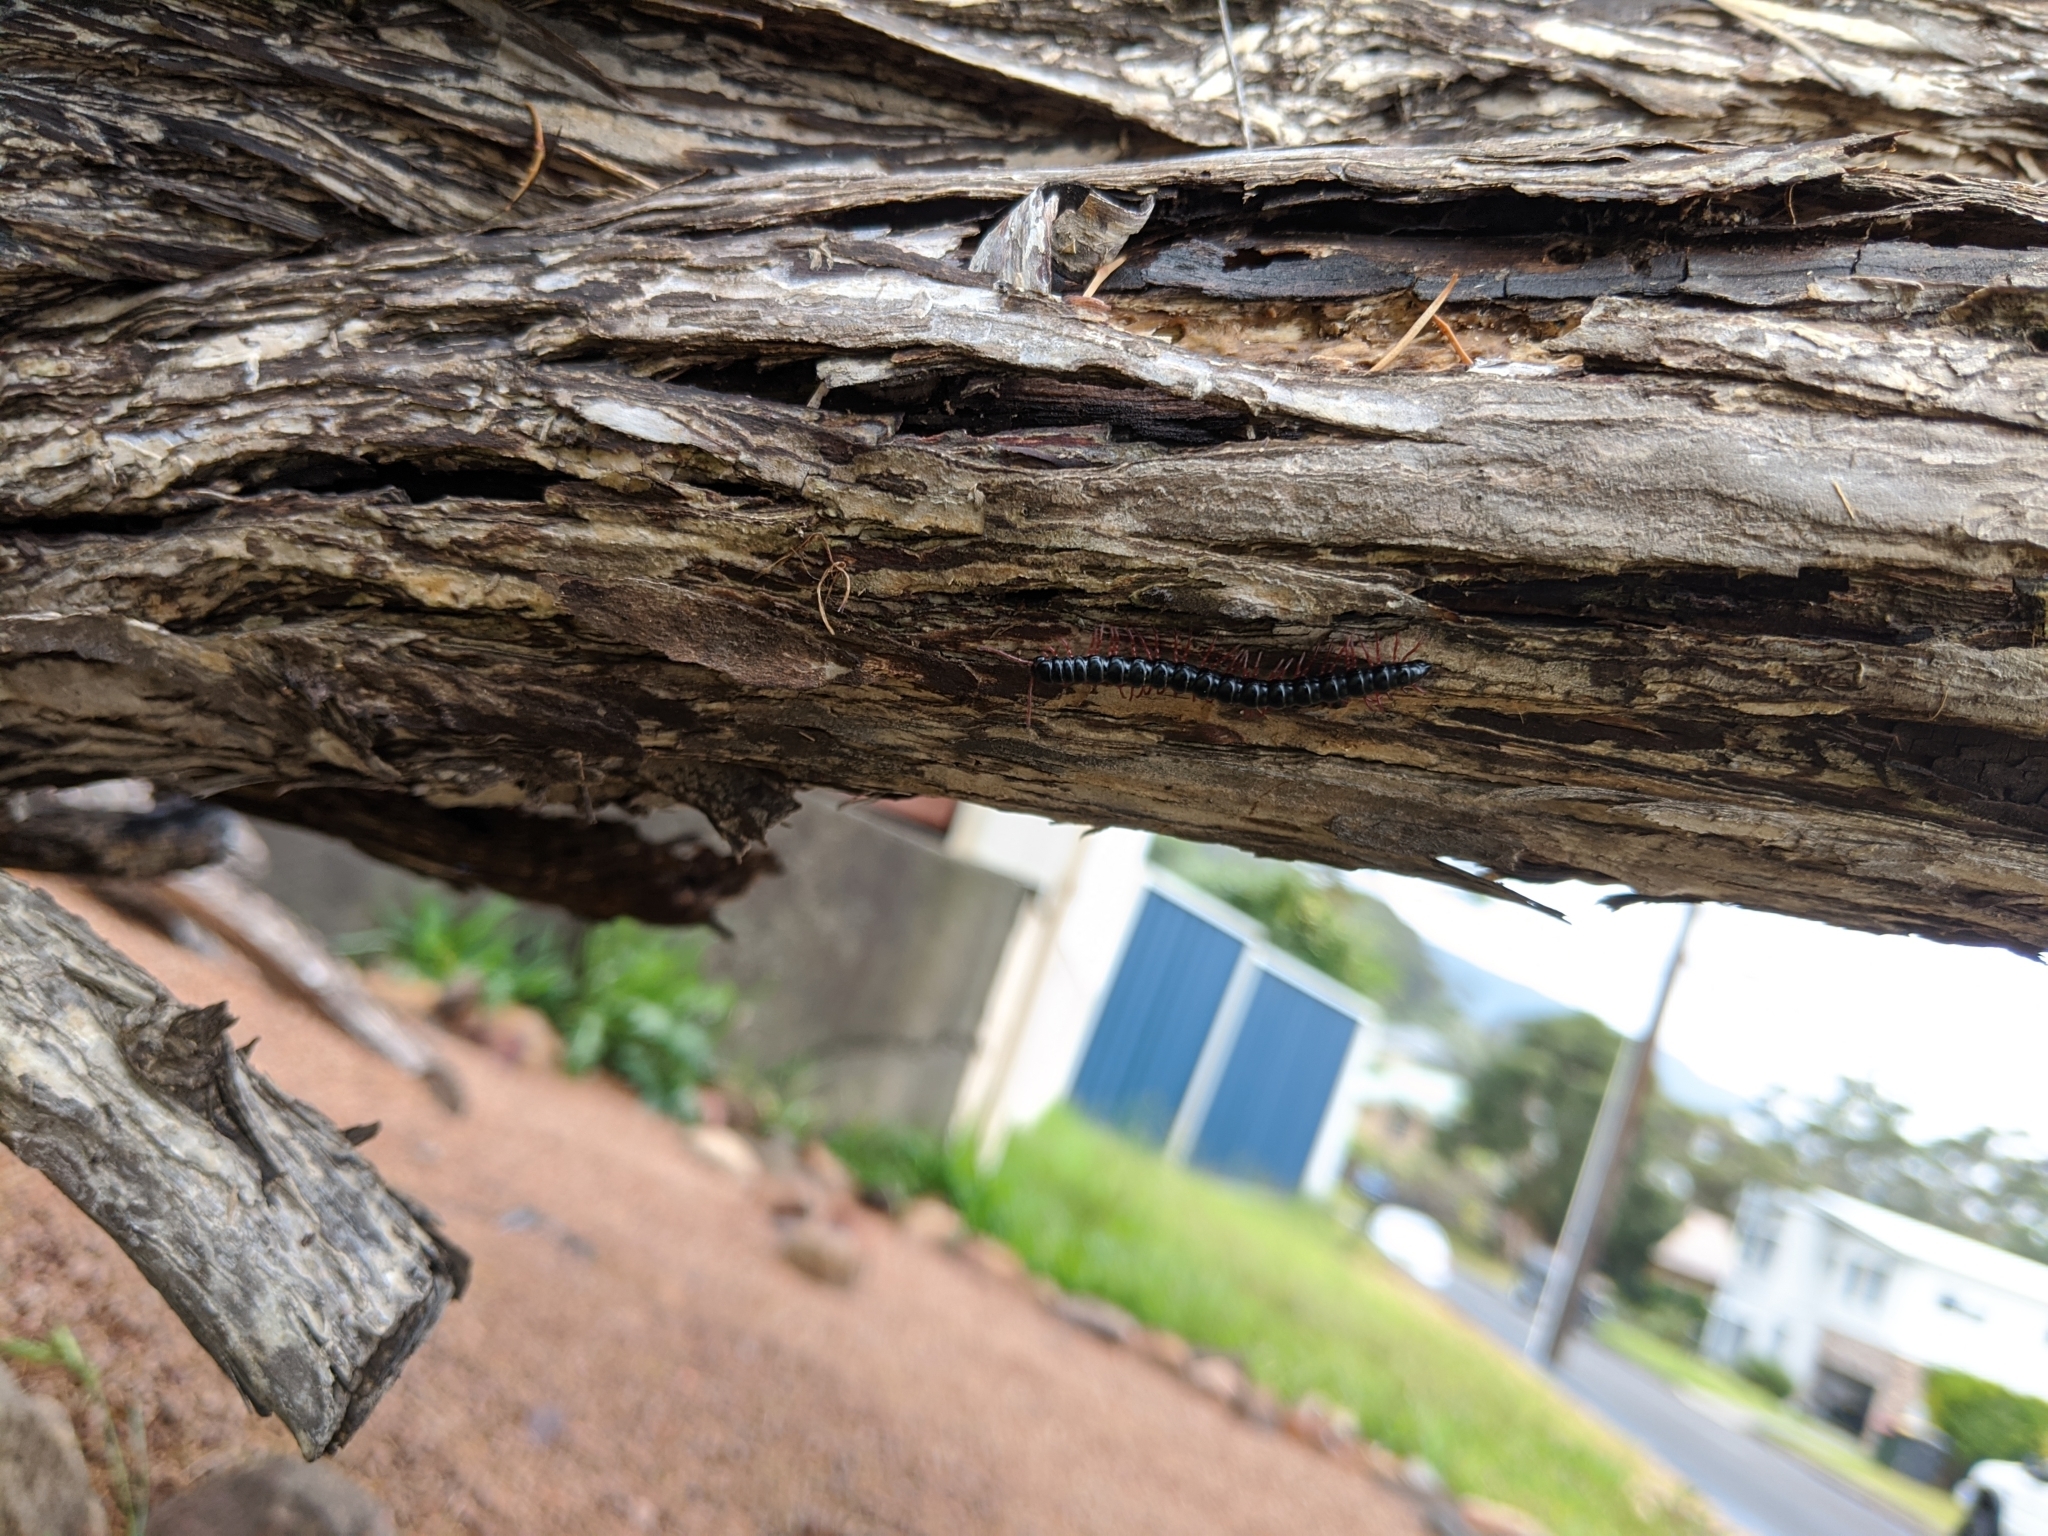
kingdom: Animalia
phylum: Arthropoda
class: Diplopoda
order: Polydesmida
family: Paradoxosomatidae
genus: Heterocladosoma
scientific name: Heterocladosoma
